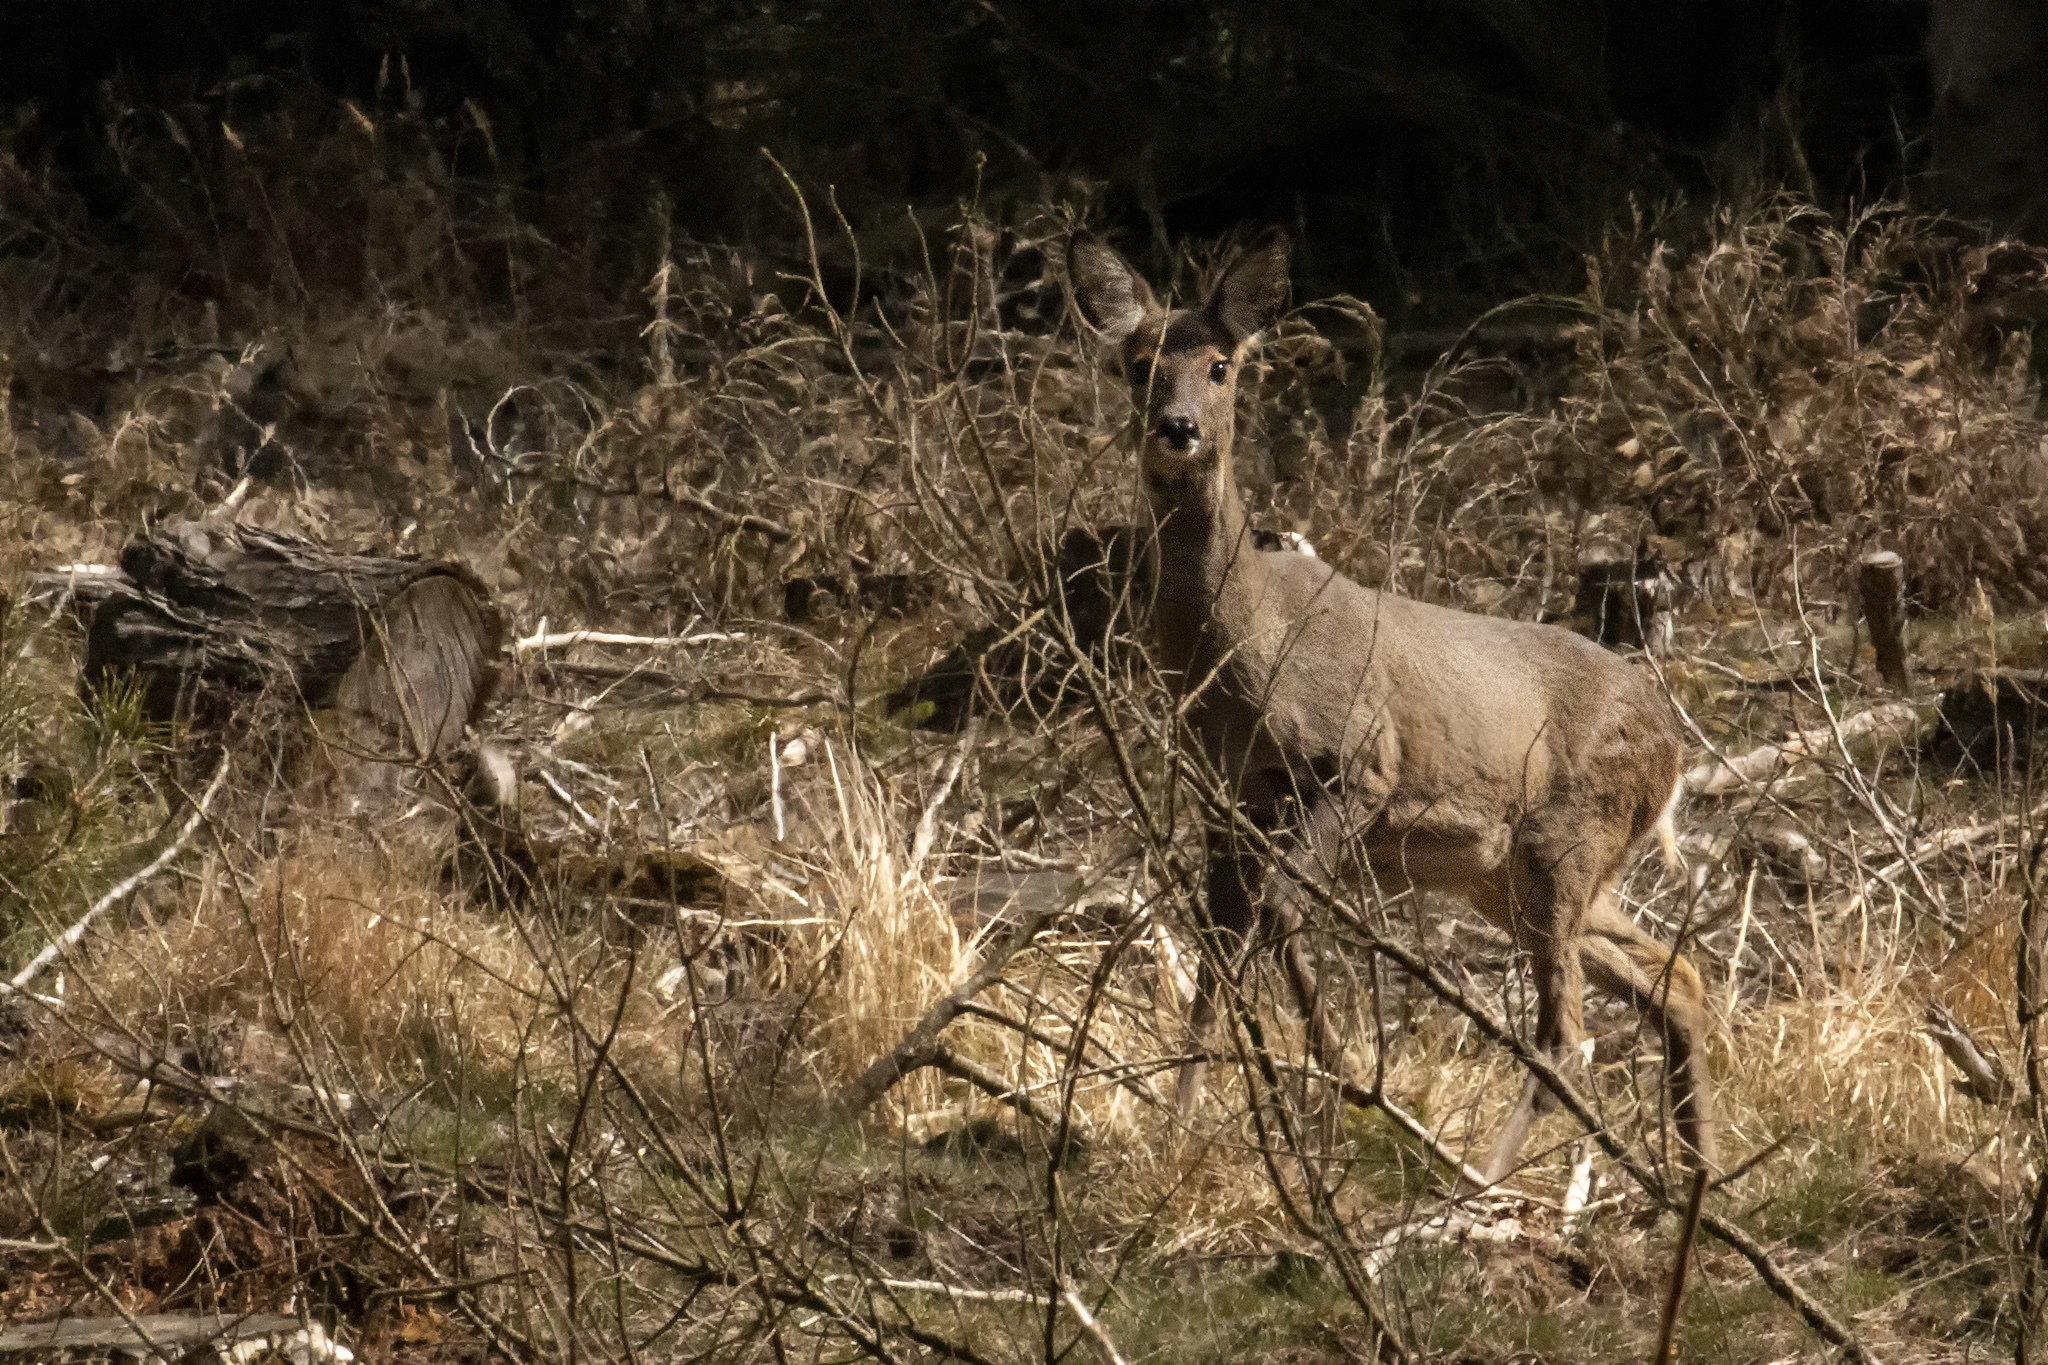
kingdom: Animalia
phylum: Chordata
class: Mammalia
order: Artiodactyla
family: Cervidae
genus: Capreolus
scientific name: Capreolus capreolus
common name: Western roe deer
